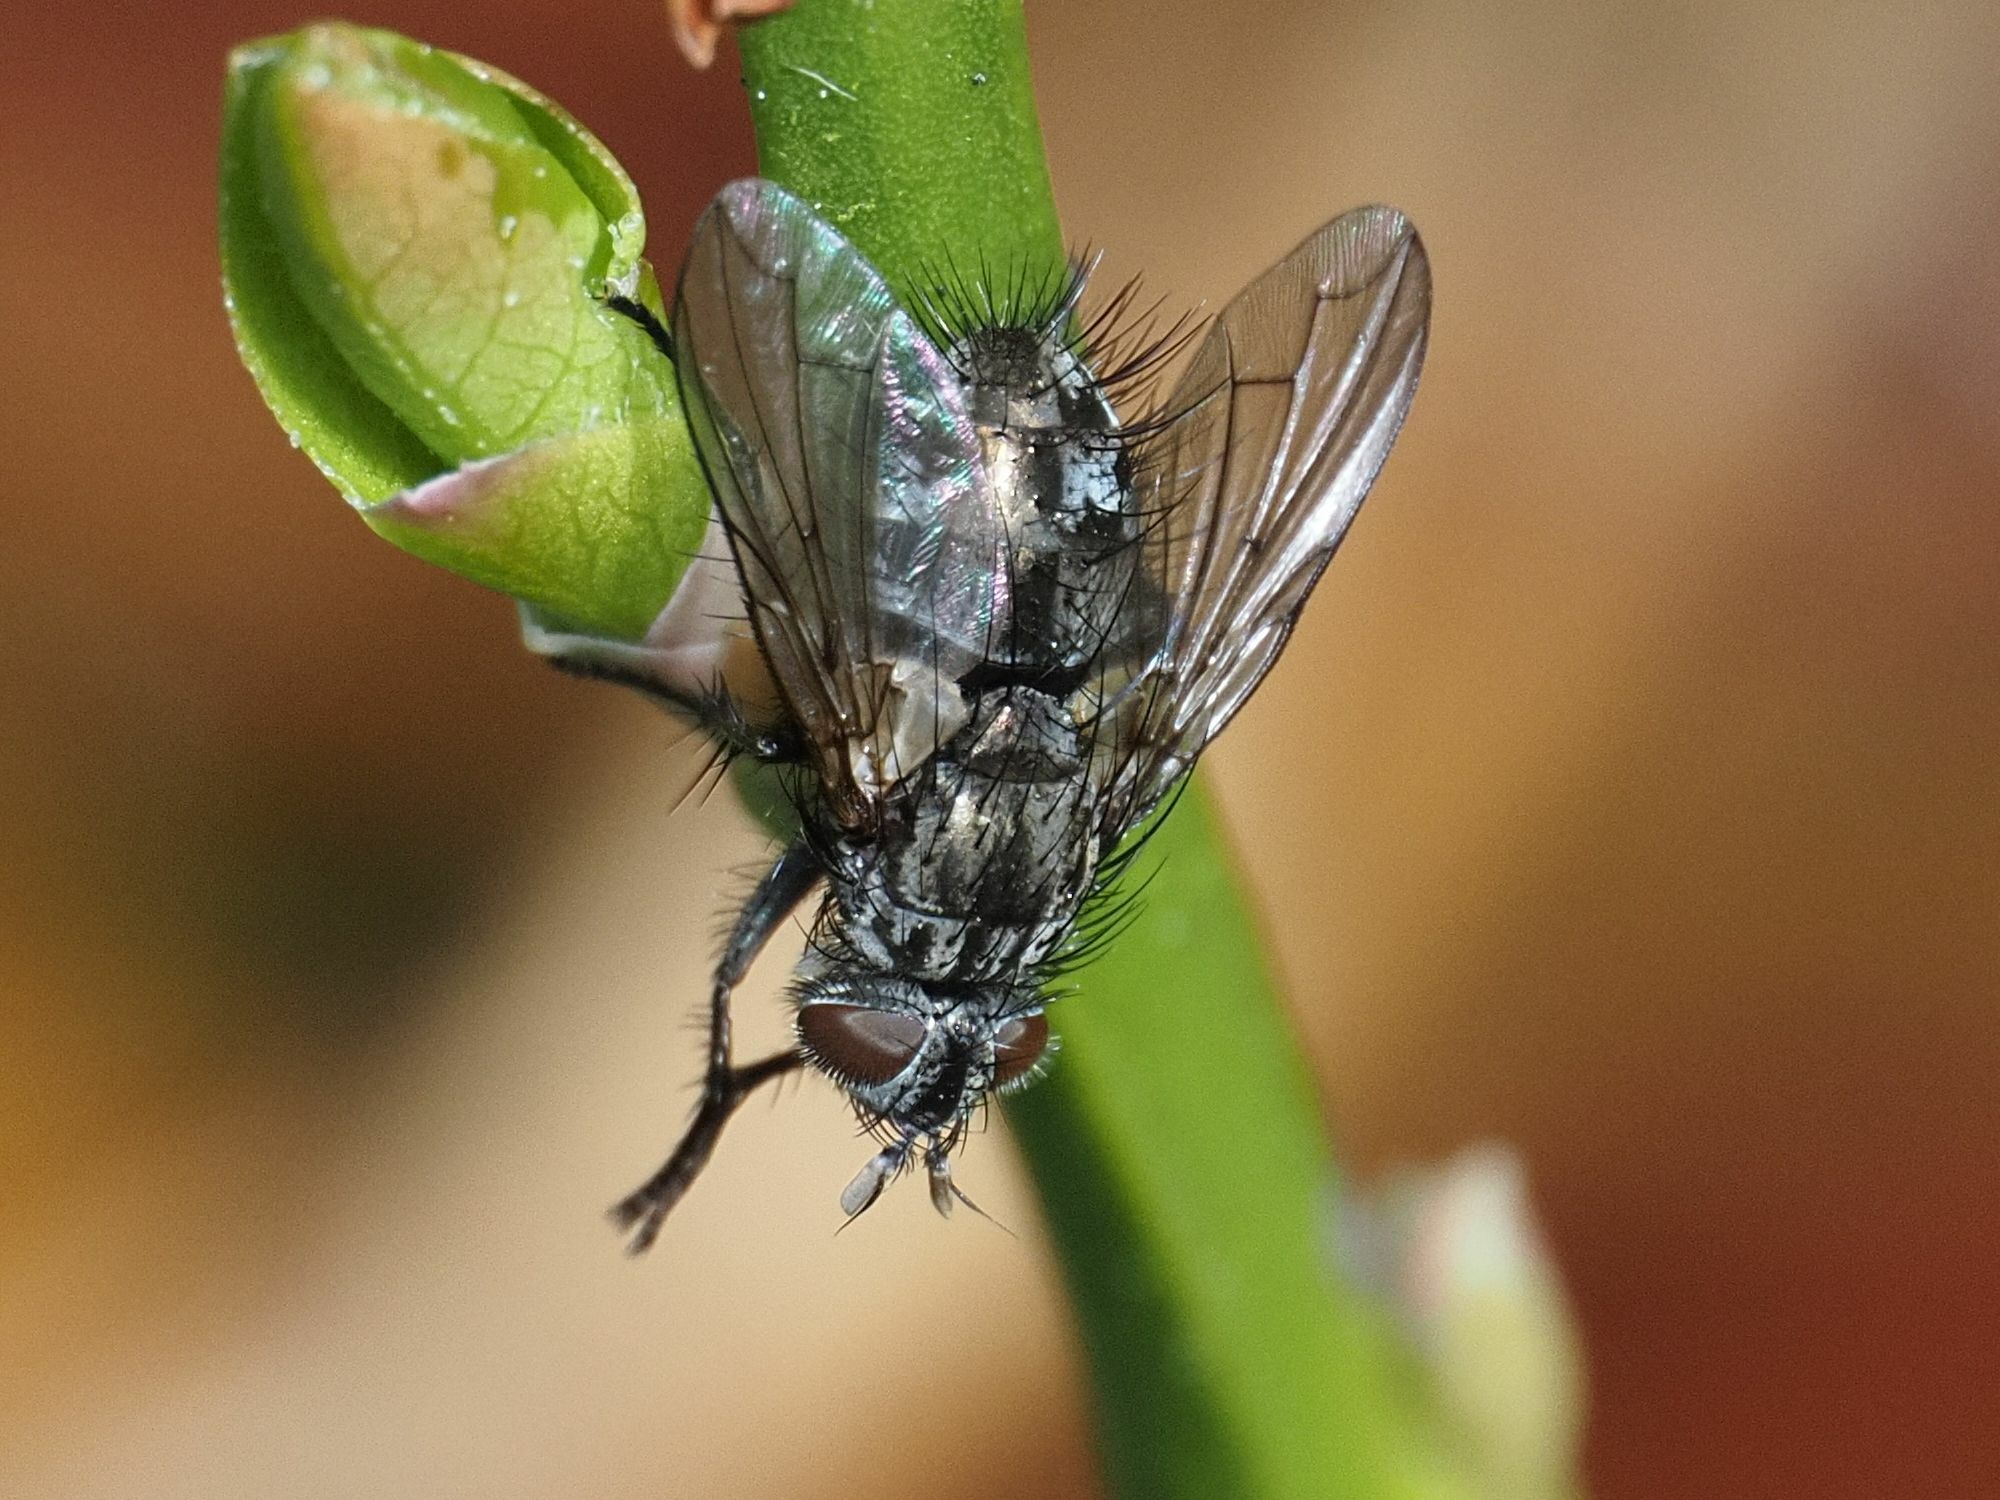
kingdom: Animalia
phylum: Arthropoda
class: Insecta
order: Diptera
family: Tachinidae
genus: Lypha
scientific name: Lypha dubia
